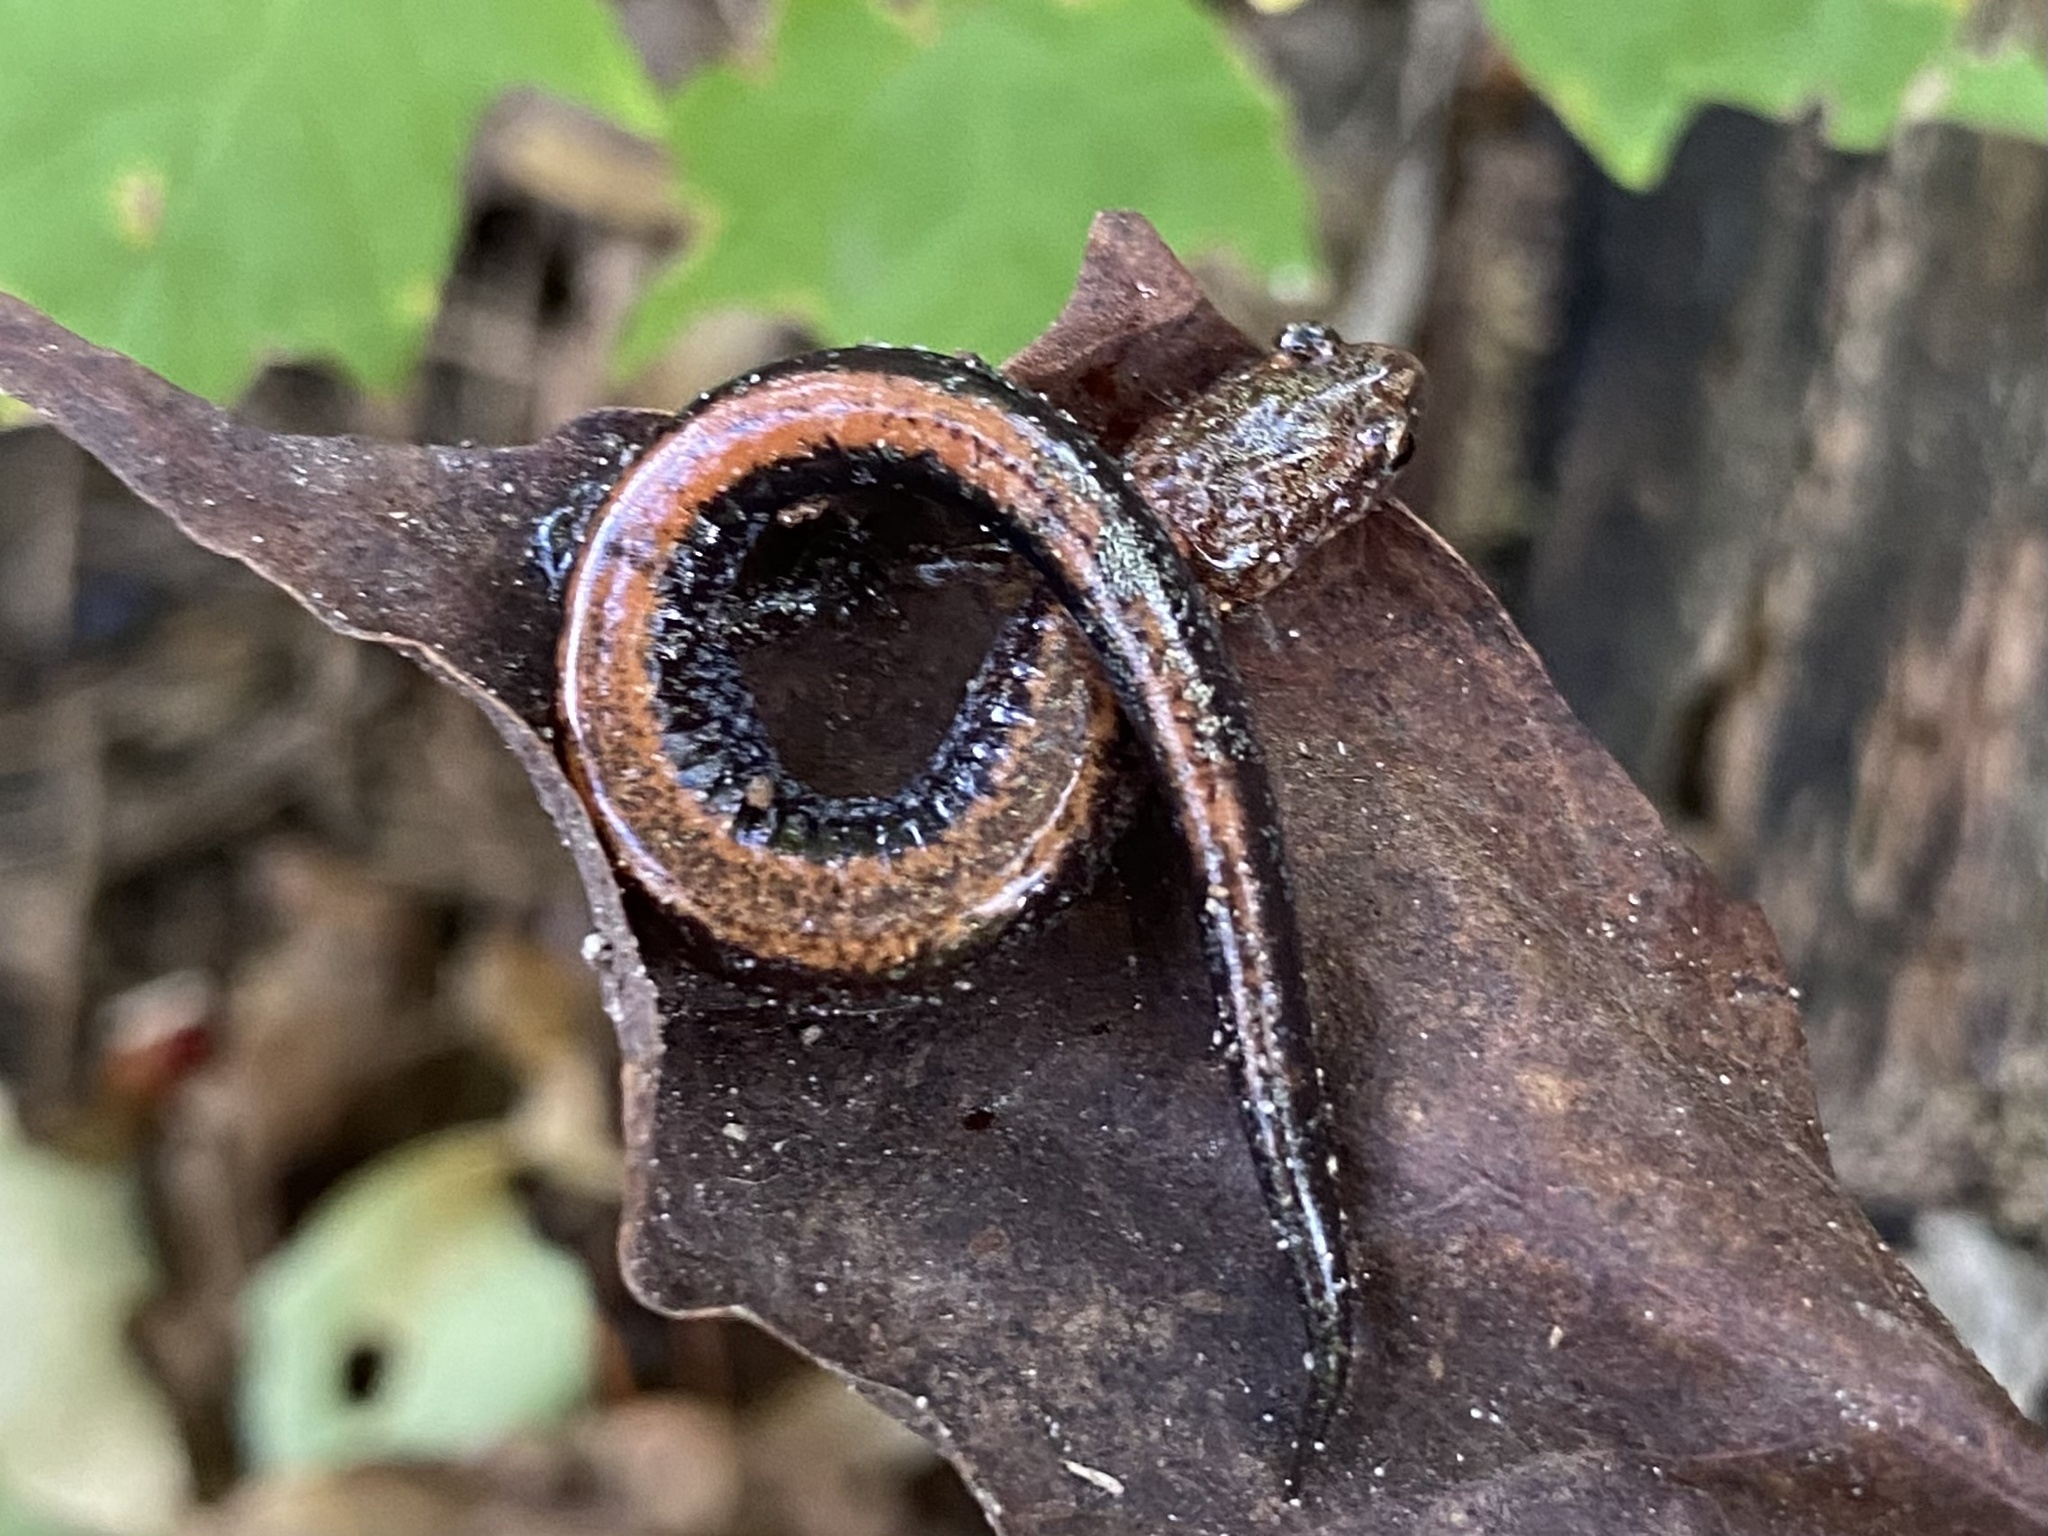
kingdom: Animalia
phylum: Chordata
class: Amphibia
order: Caudata
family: Plethodontidae
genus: Plethodon
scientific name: Plethodon cinereus
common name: Redback salamander
